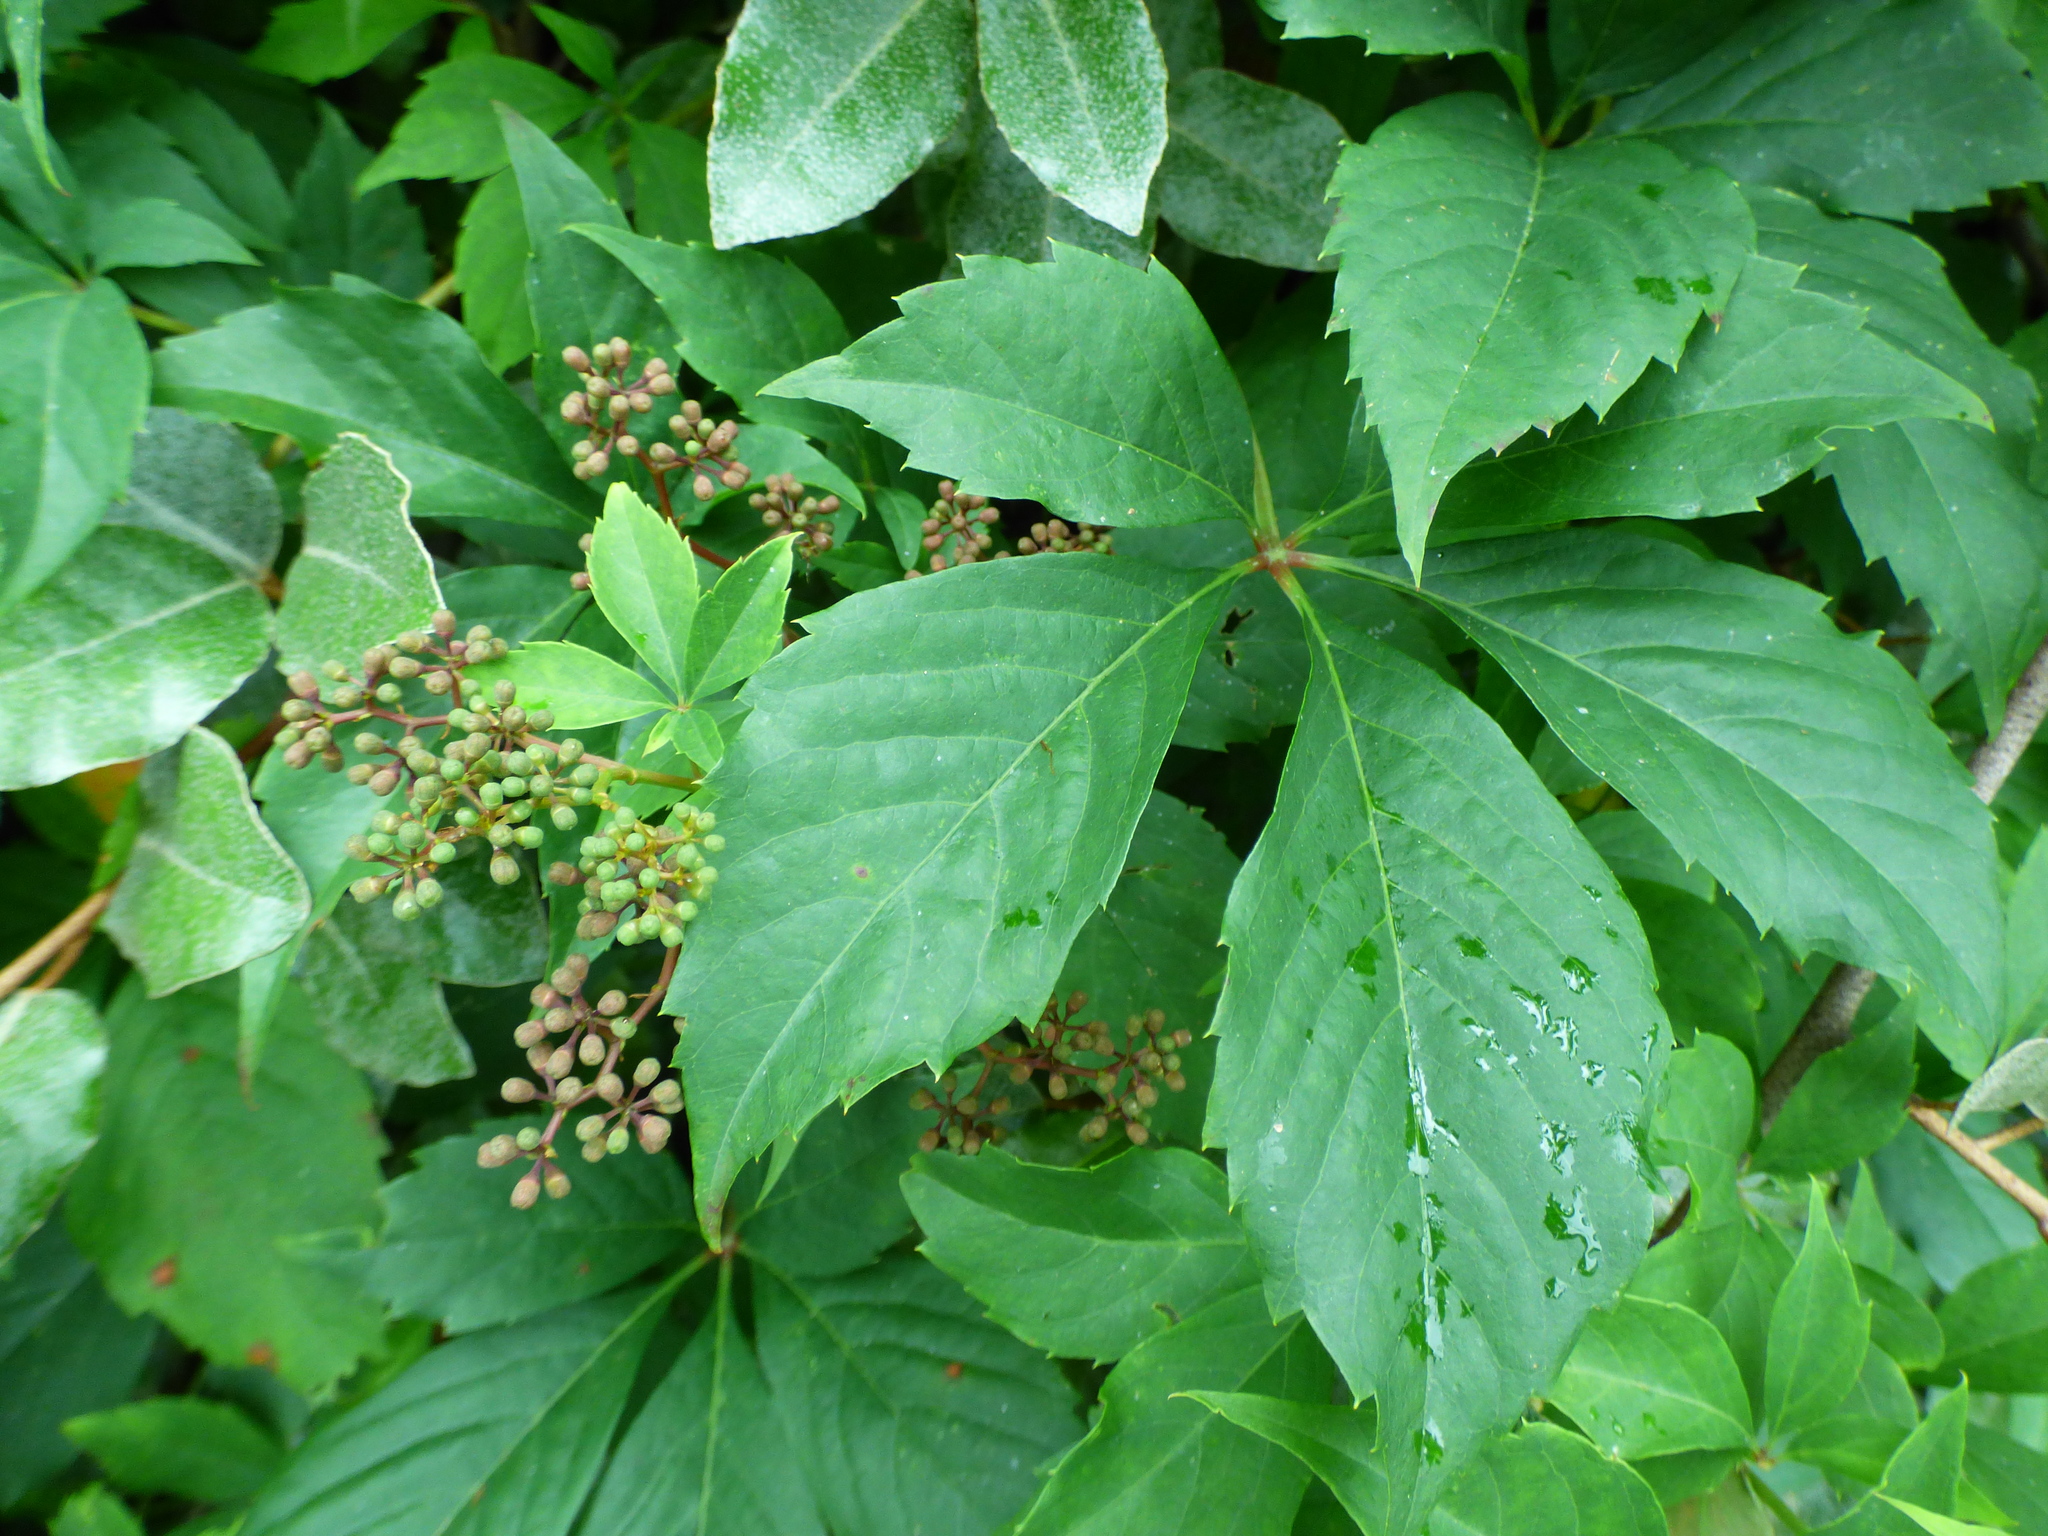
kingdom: Plantae
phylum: Tracheophyta
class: Magnoliopsida
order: Vitales
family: Vitaceae
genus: Parthenocissus
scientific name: Parthenocissus quinquefolia
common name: Virginia-creeper
